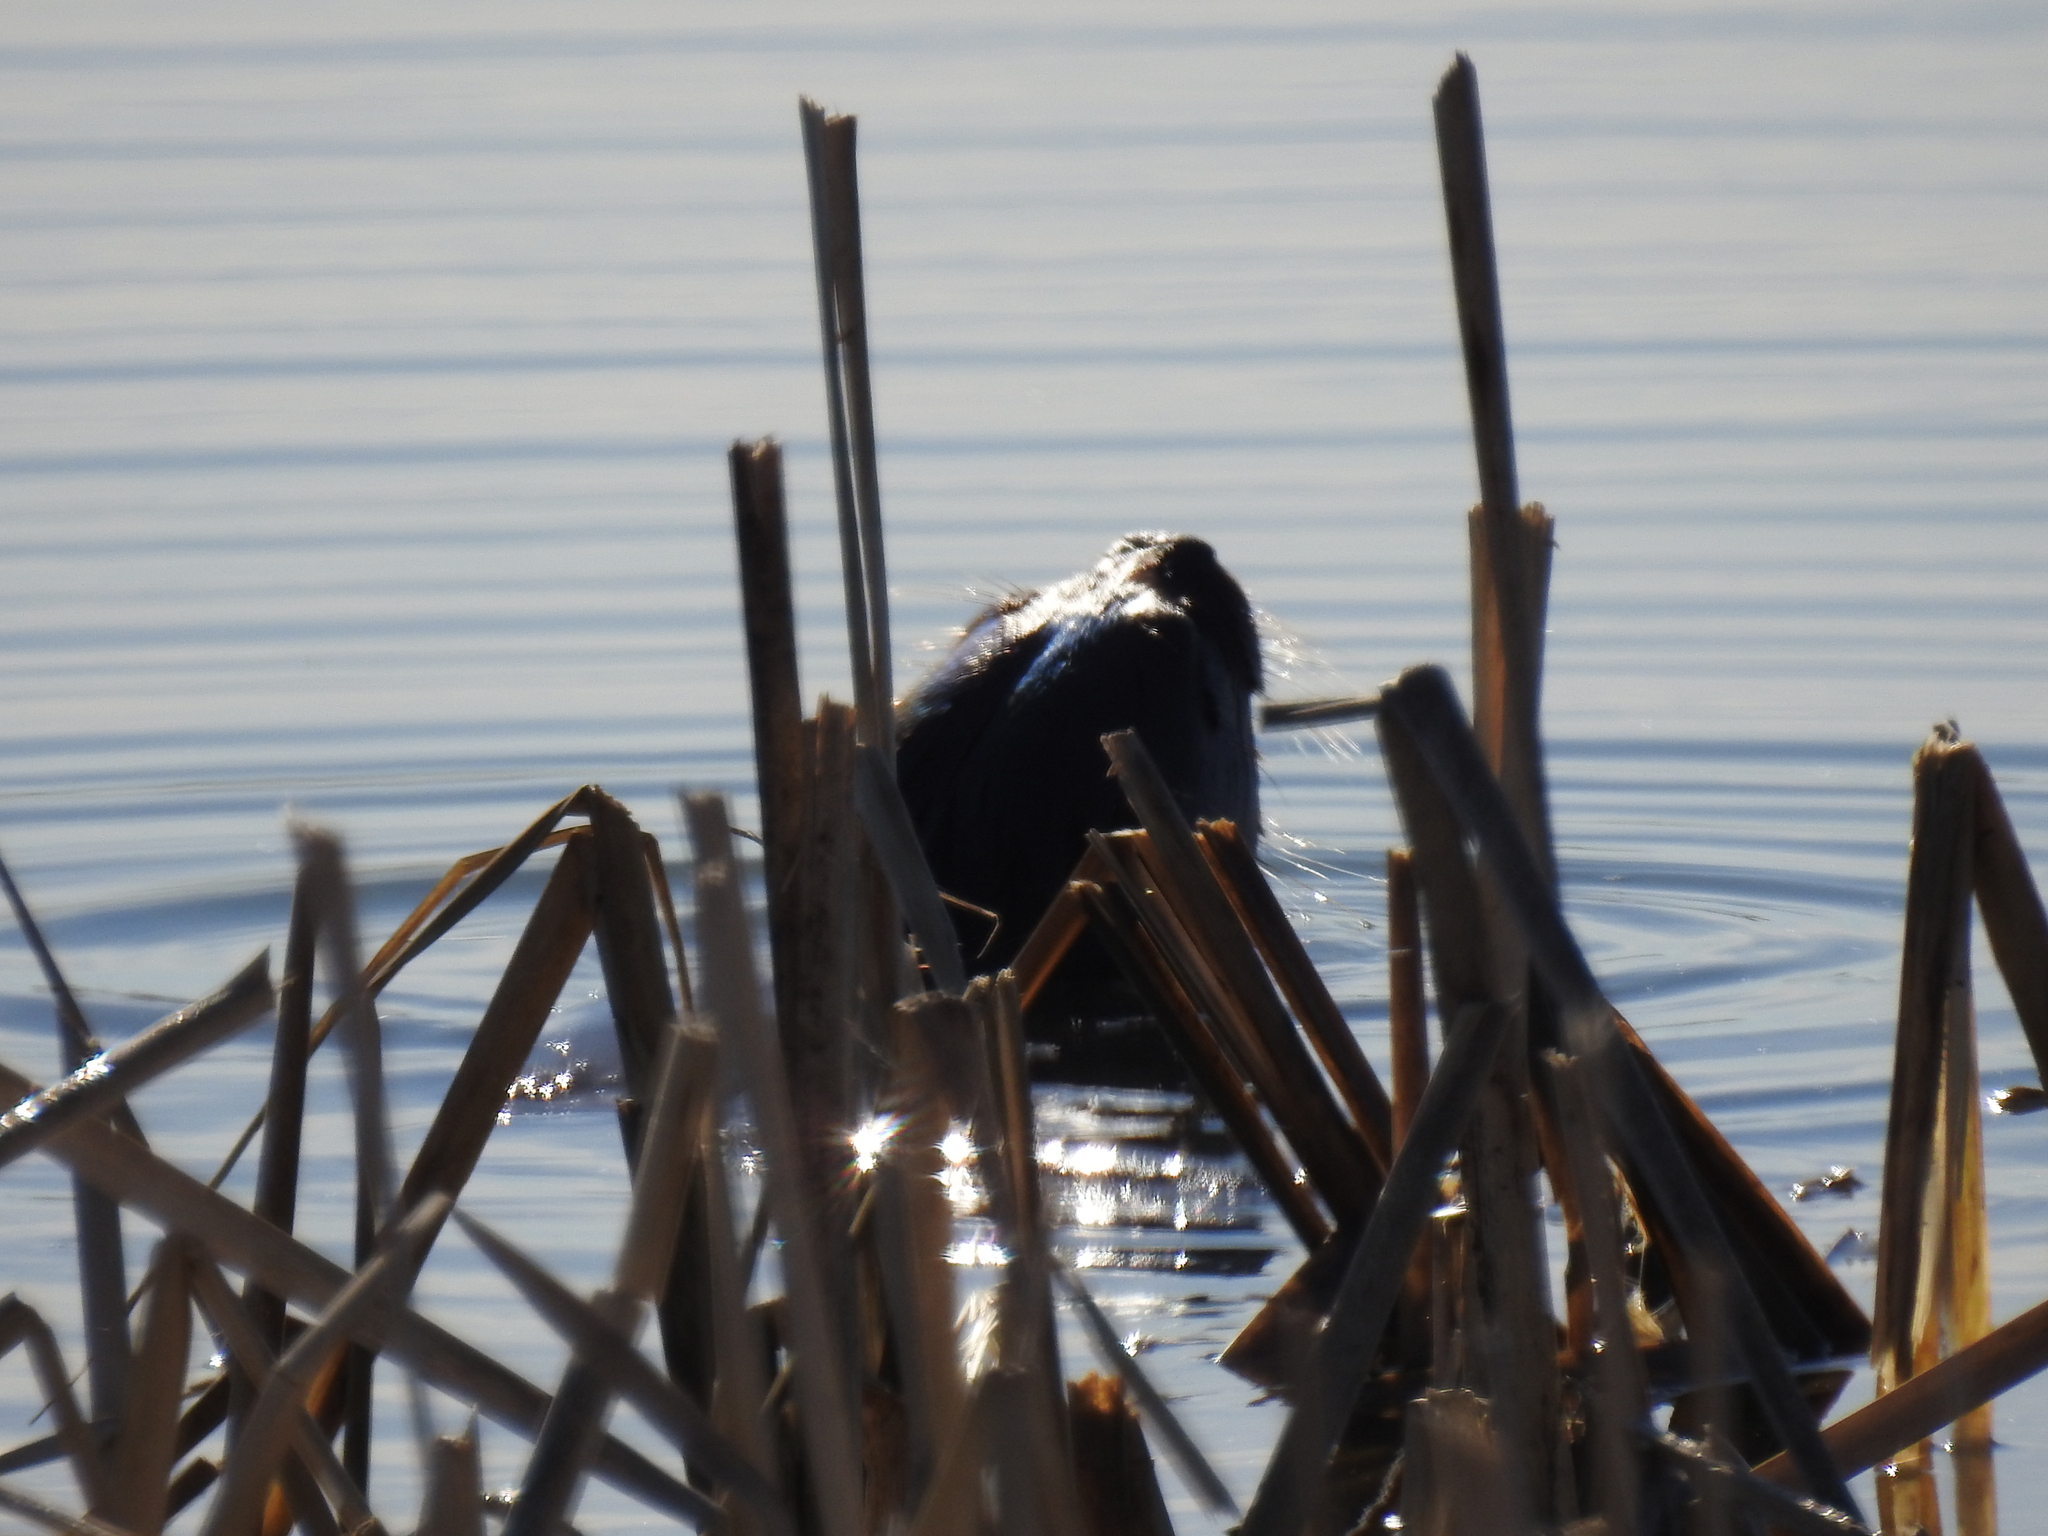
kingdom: Animalia
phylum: Chordata
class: Mammalia
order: Carnivora
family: Mustelidae
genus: Lontra
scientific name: Lontra canadensis
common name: North american river otter
